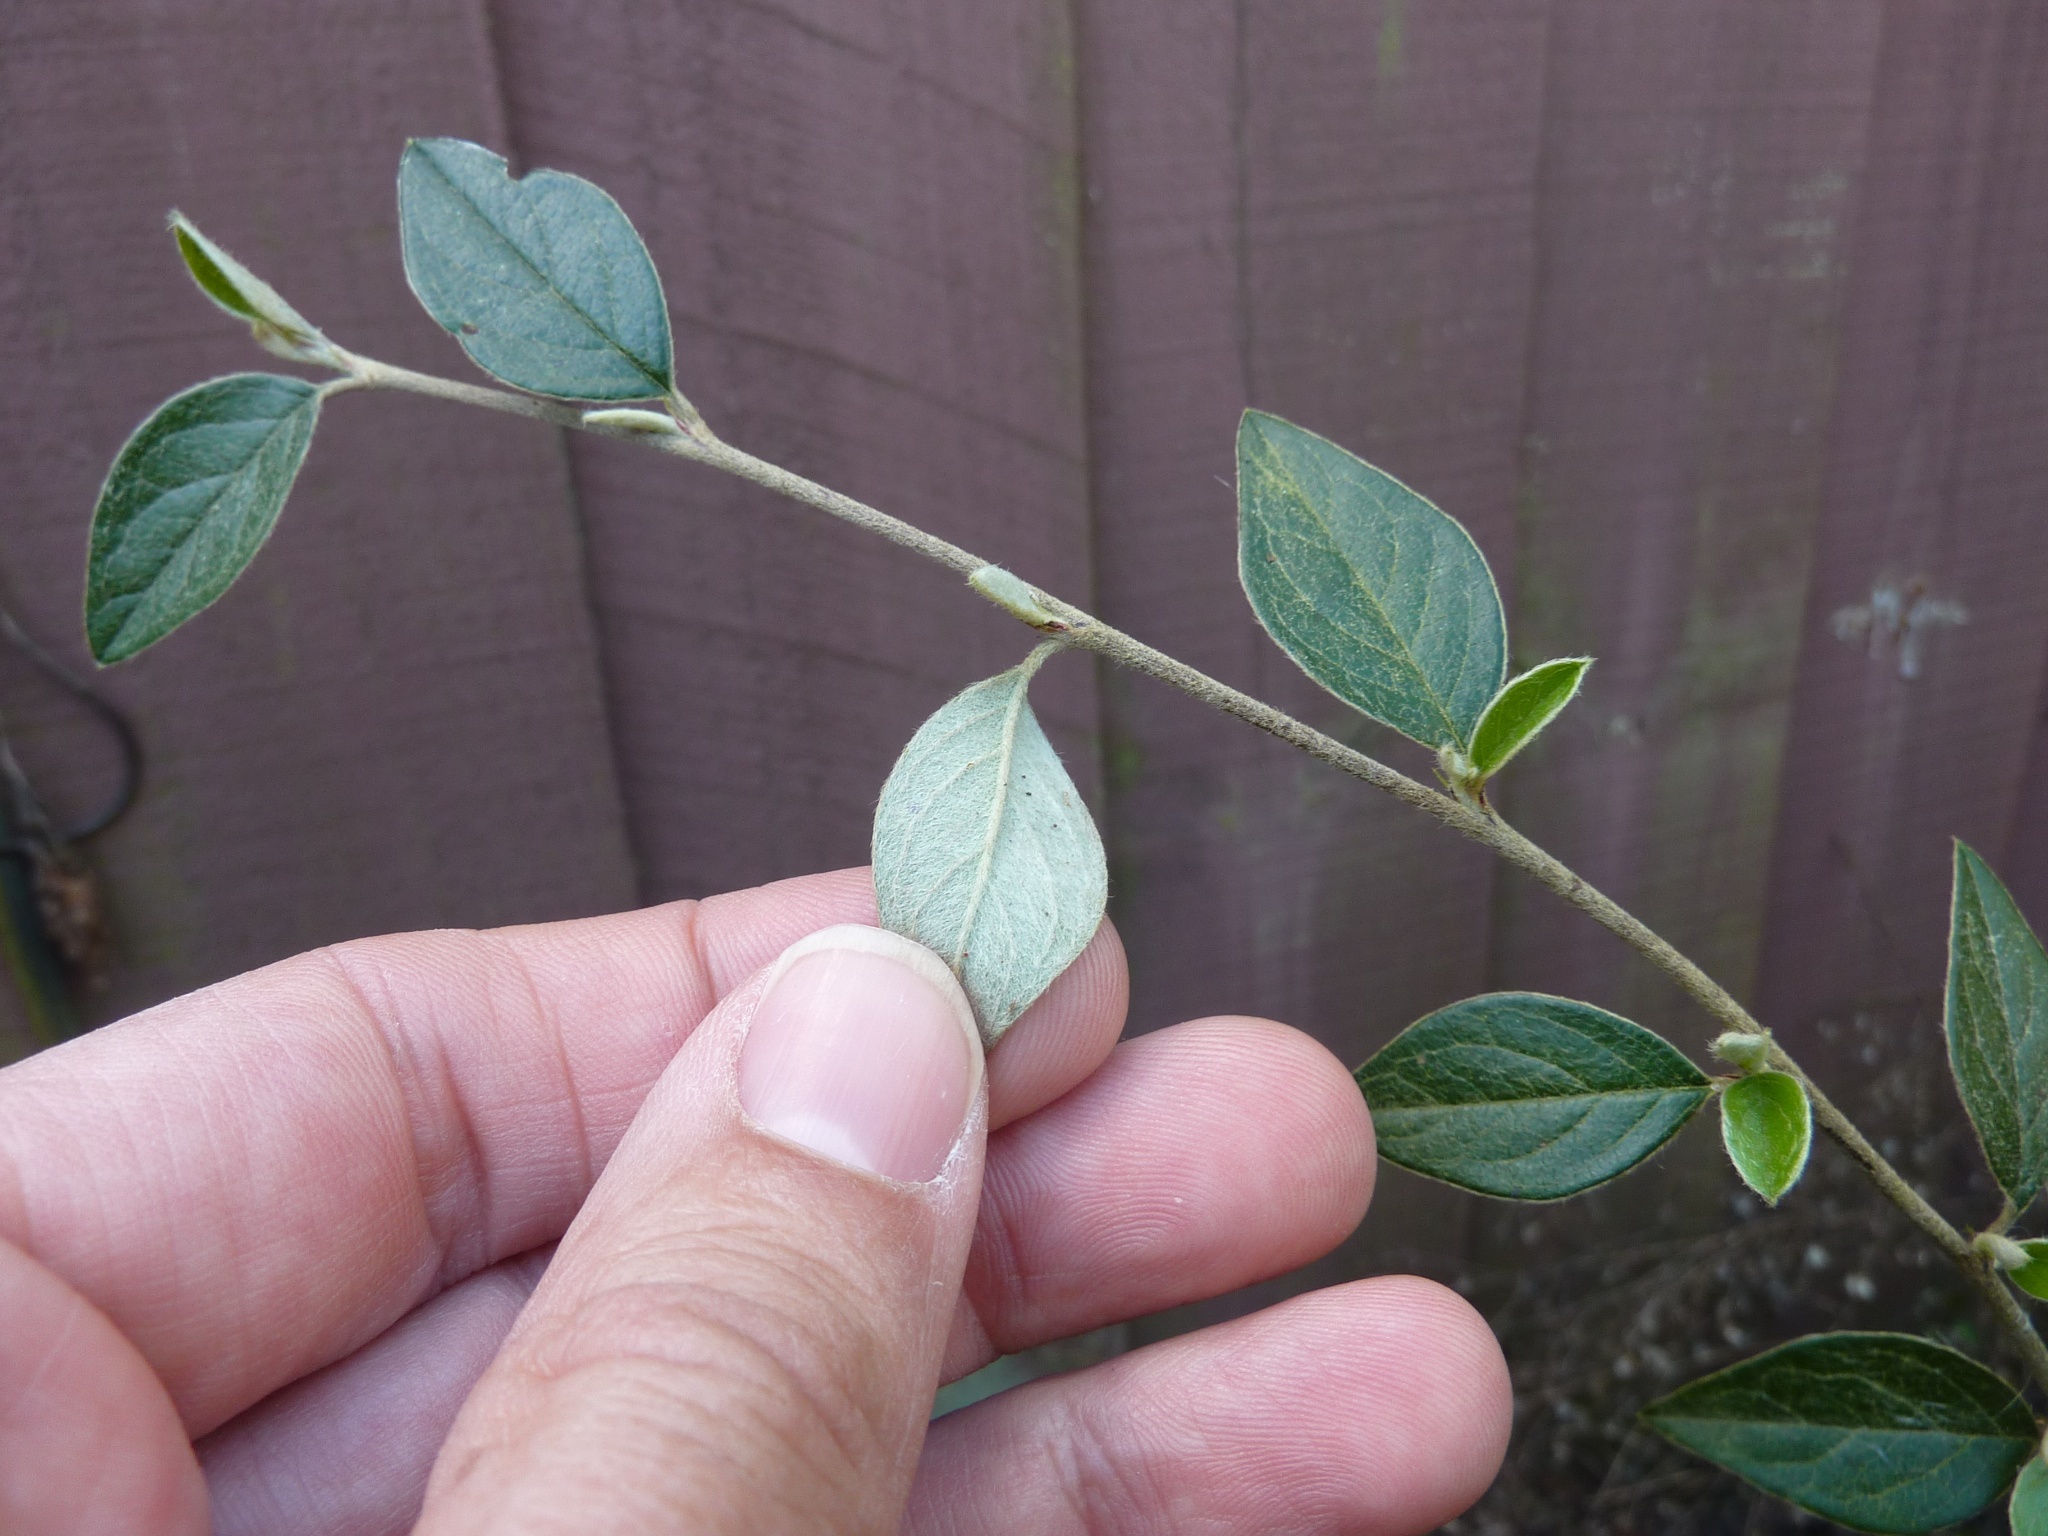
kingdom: Plantae
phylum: Tracheophyta
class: Magnoliopsida
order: Rosales
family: Rosaceae
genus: Cotoneaster
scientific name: Cotoneaster franchetii
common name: Franchet's cotoneaster
